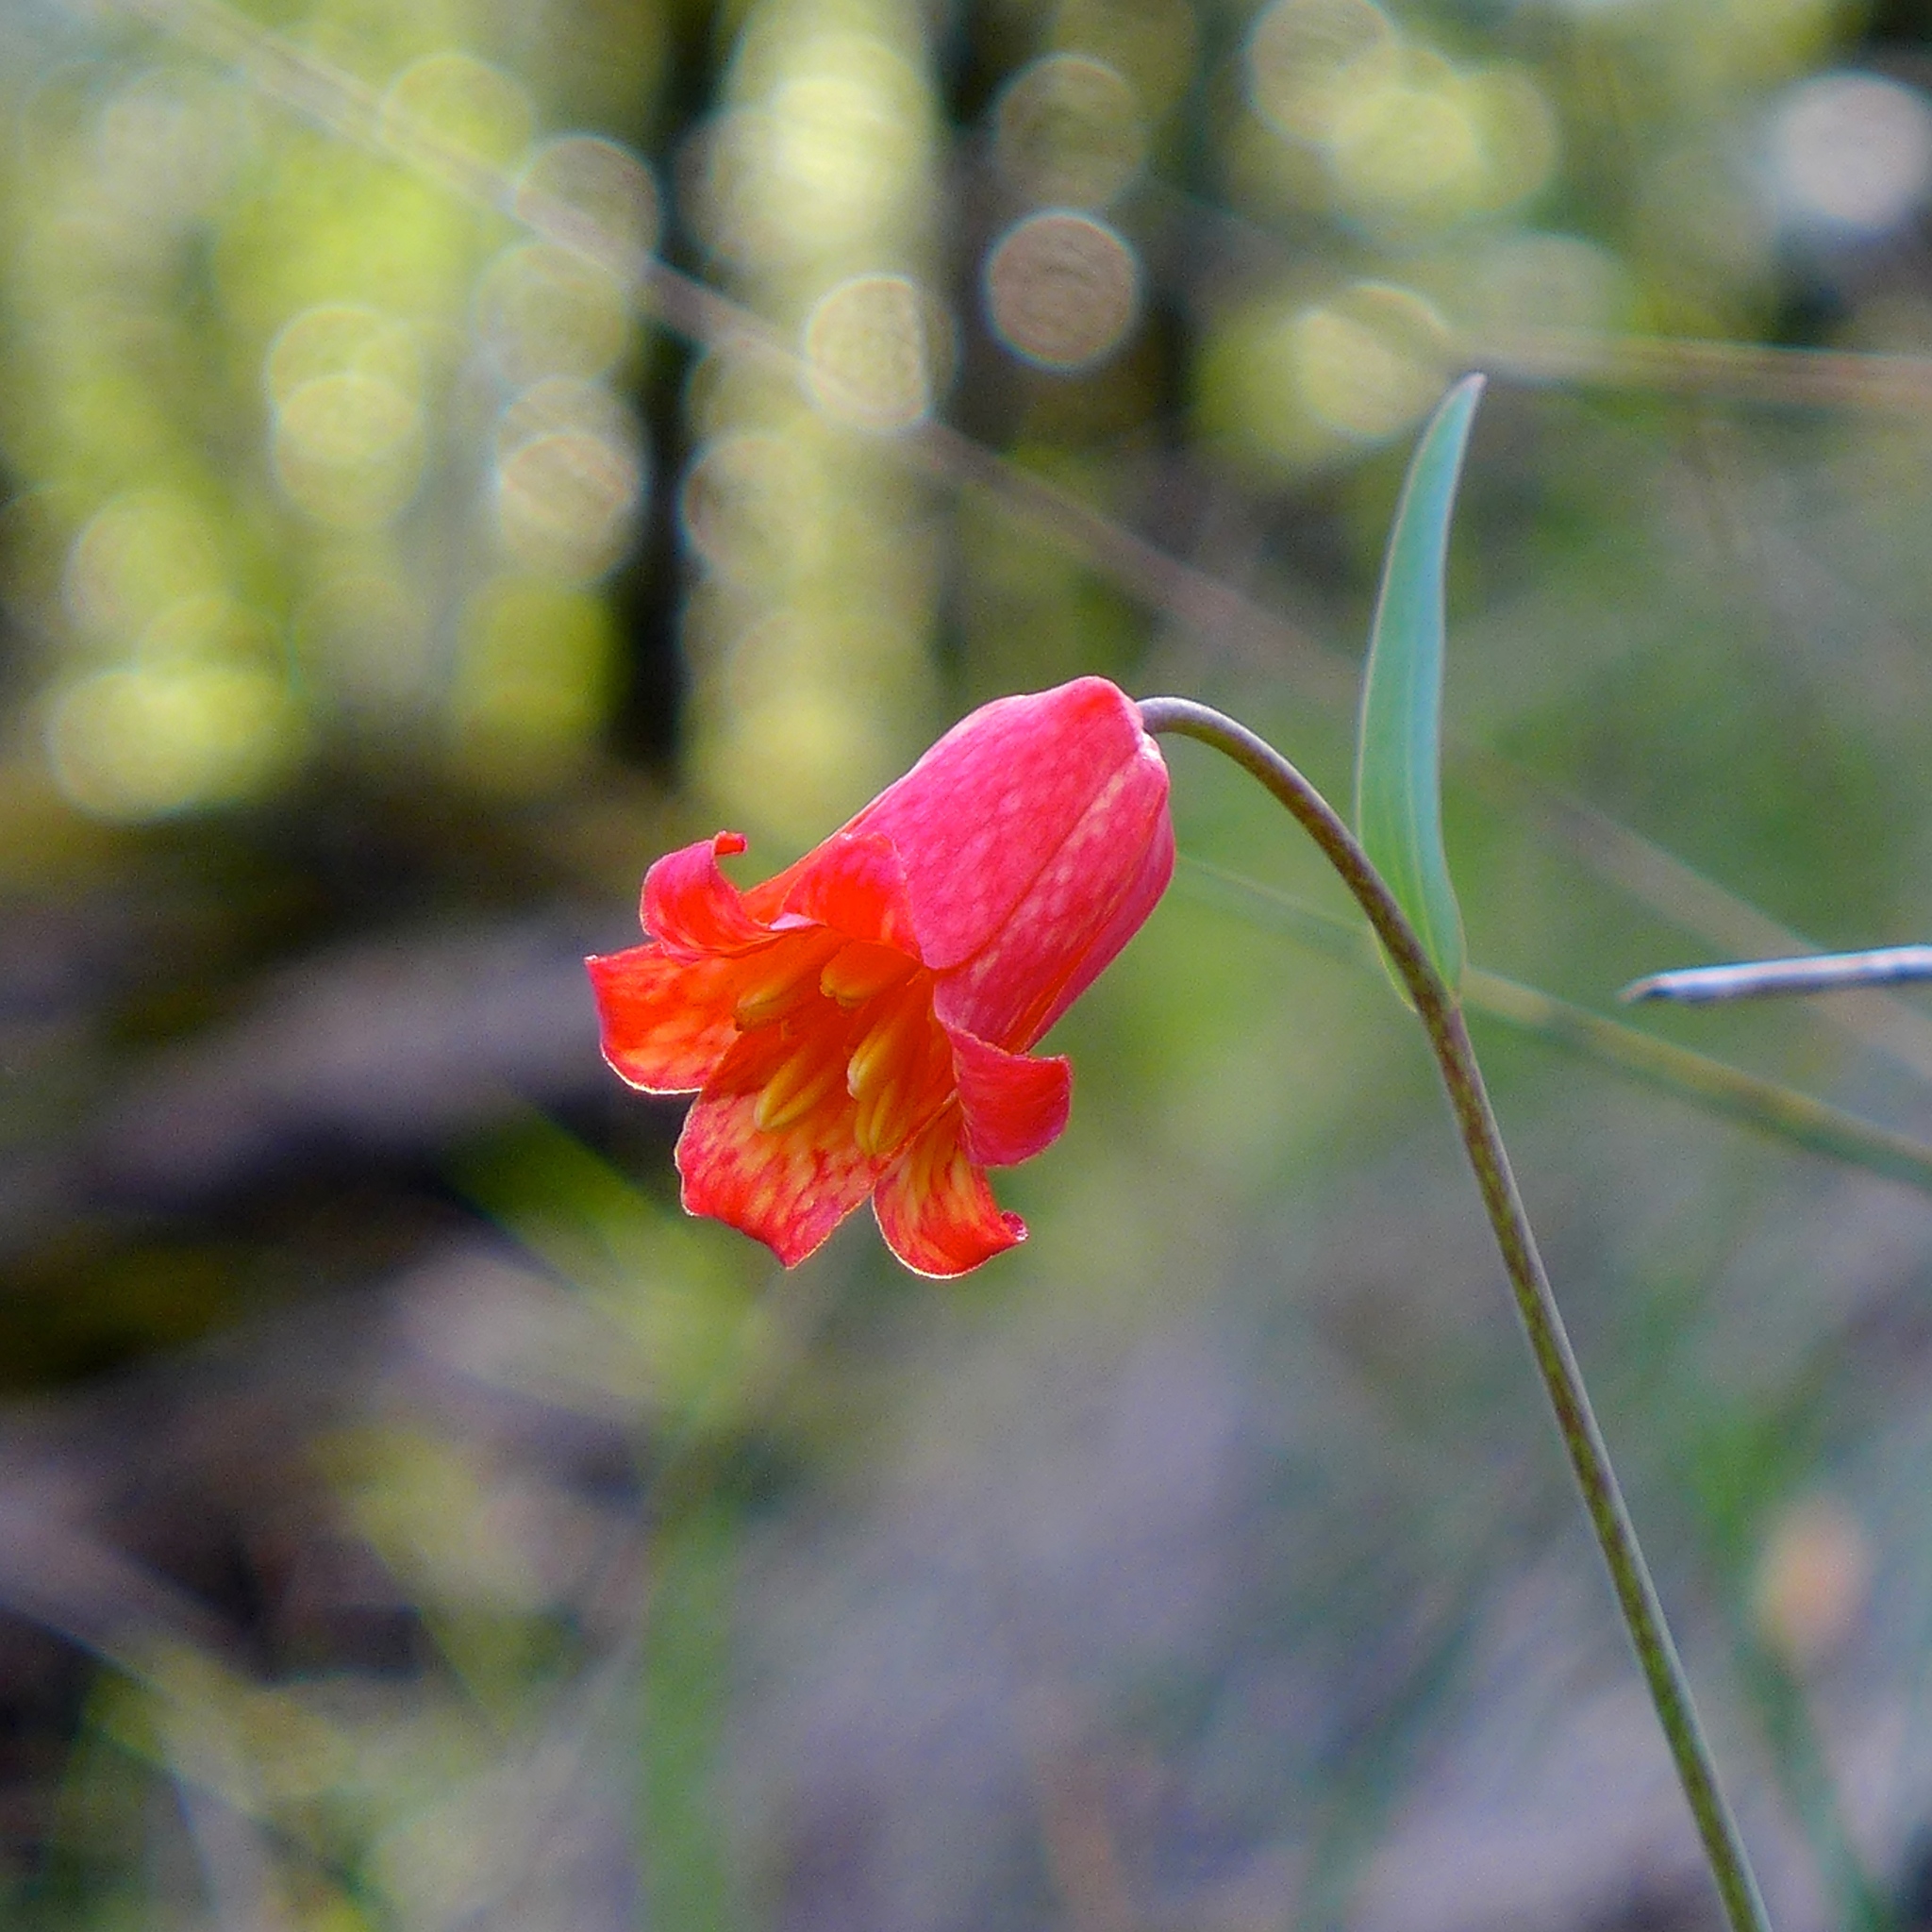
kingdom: Plantae
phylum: Tracheophyta
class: Liliopsida
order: Liliales
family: Liliaceae
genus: Fritillaria
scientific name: Fritillaria recurva
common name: Scarlet fritillary
